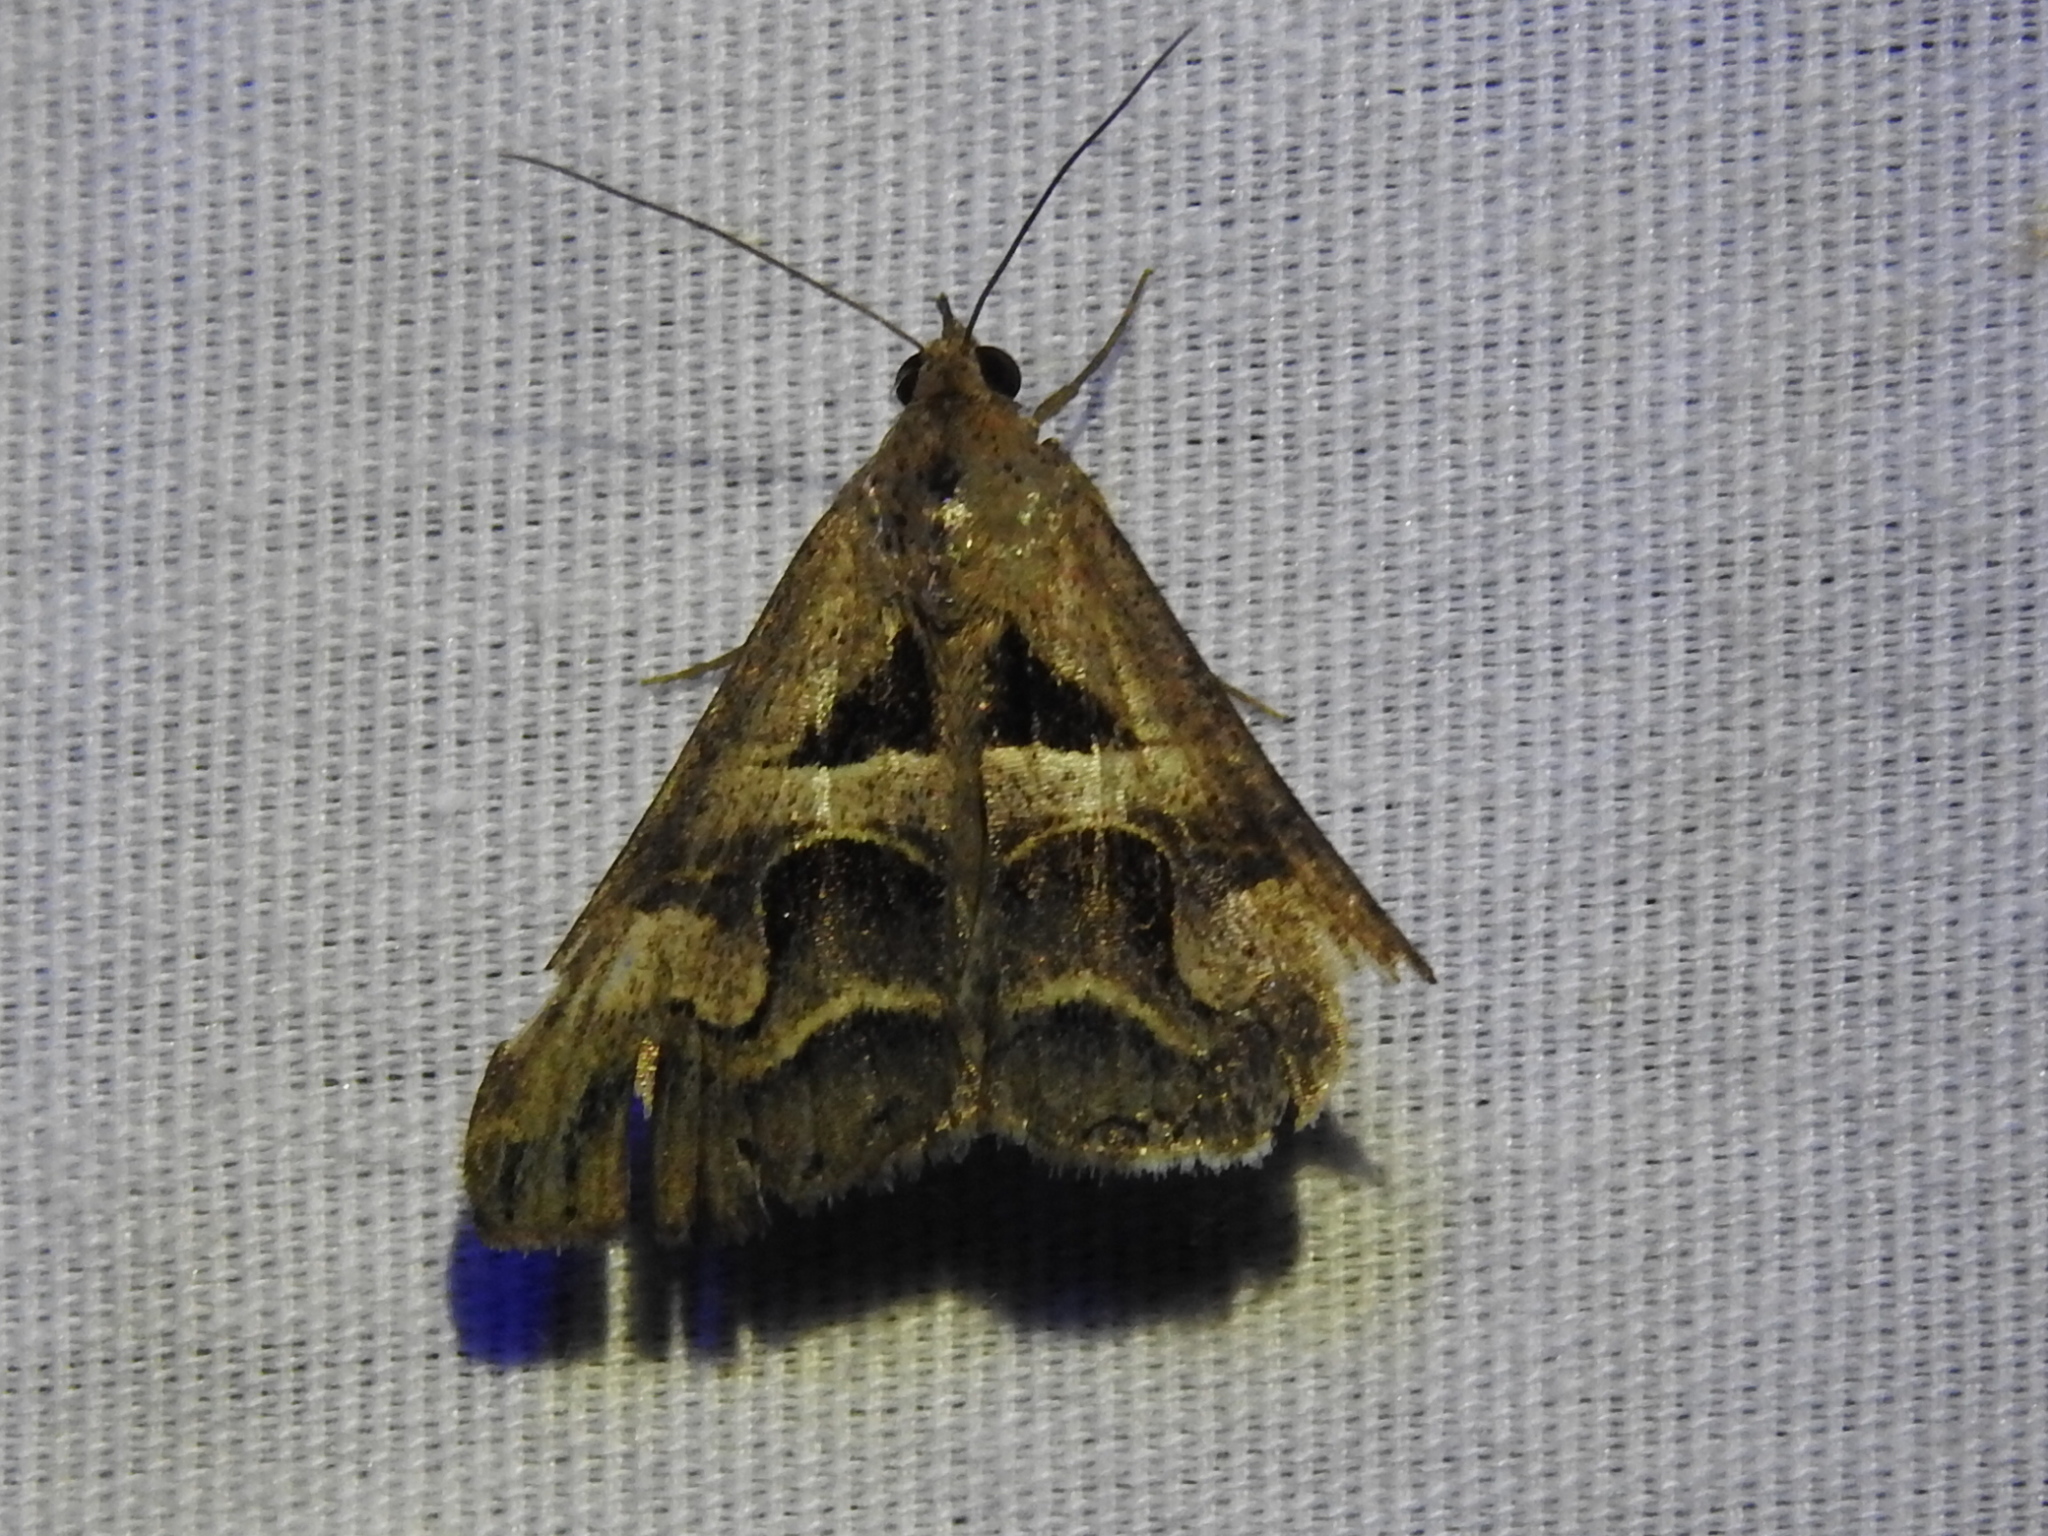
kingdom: Animalia
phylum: Arthropoda
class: Insecta
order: Lepidoptera
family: Erebidae
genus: Melipotis
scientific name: Melipotis cellaris
